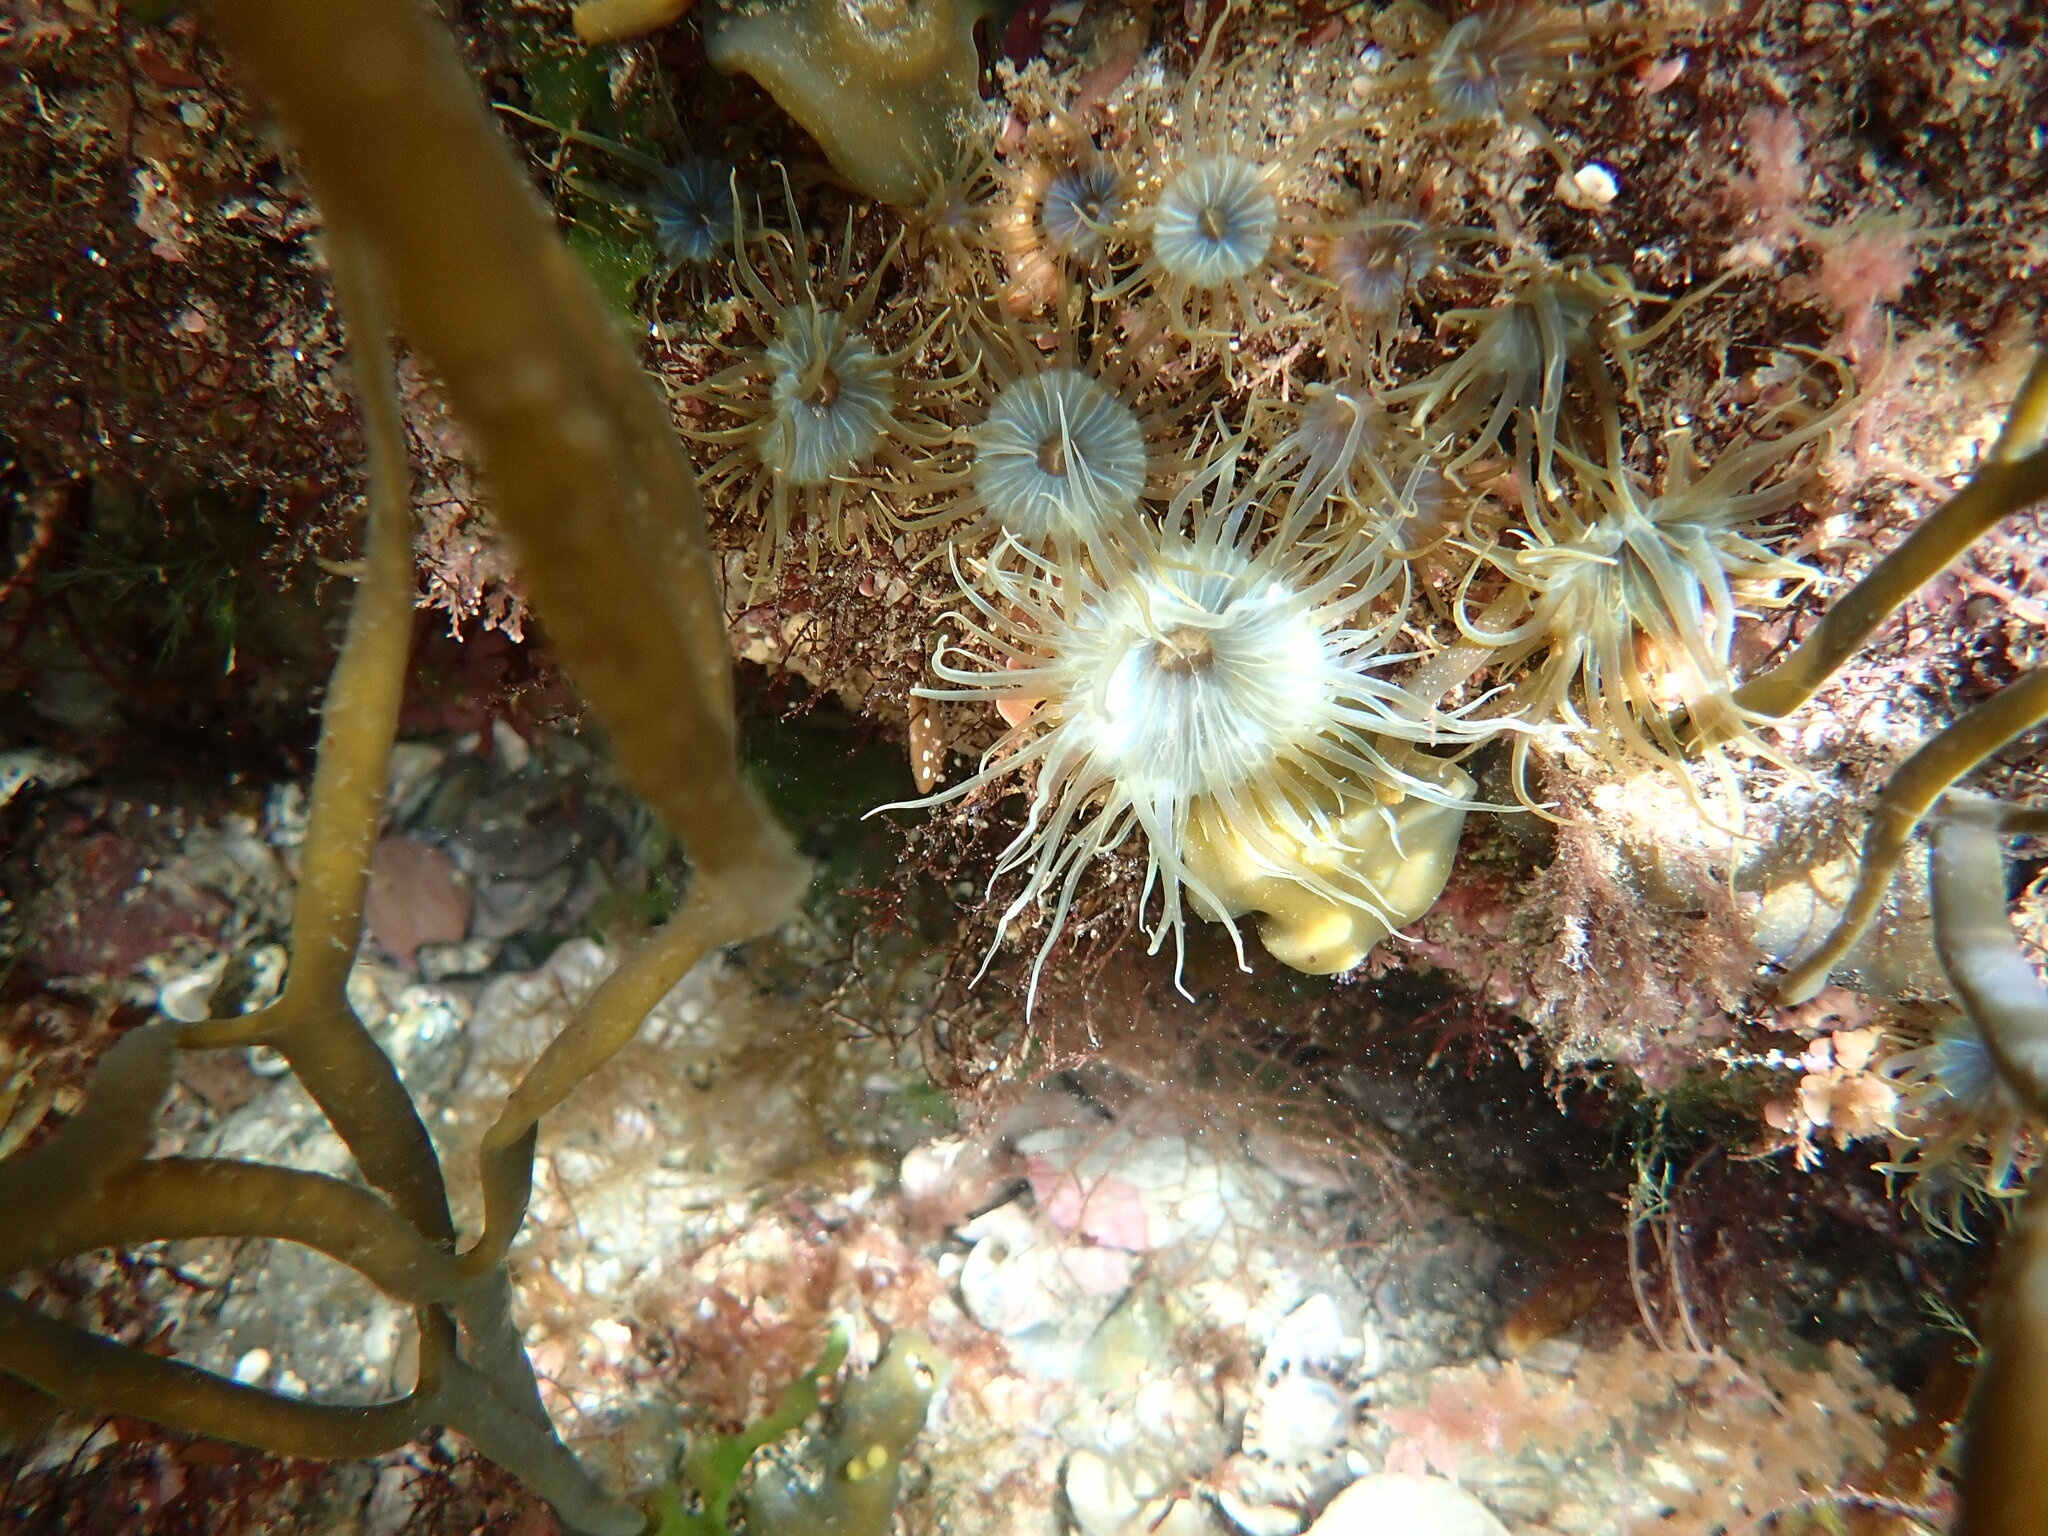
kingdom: Animalia
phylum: Cnidaria
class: Anthozoa
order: Actiniaria
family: Aiptasiidae
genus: Aiptasia
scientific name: Aiptasia couchii
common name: Trumpet anemone
